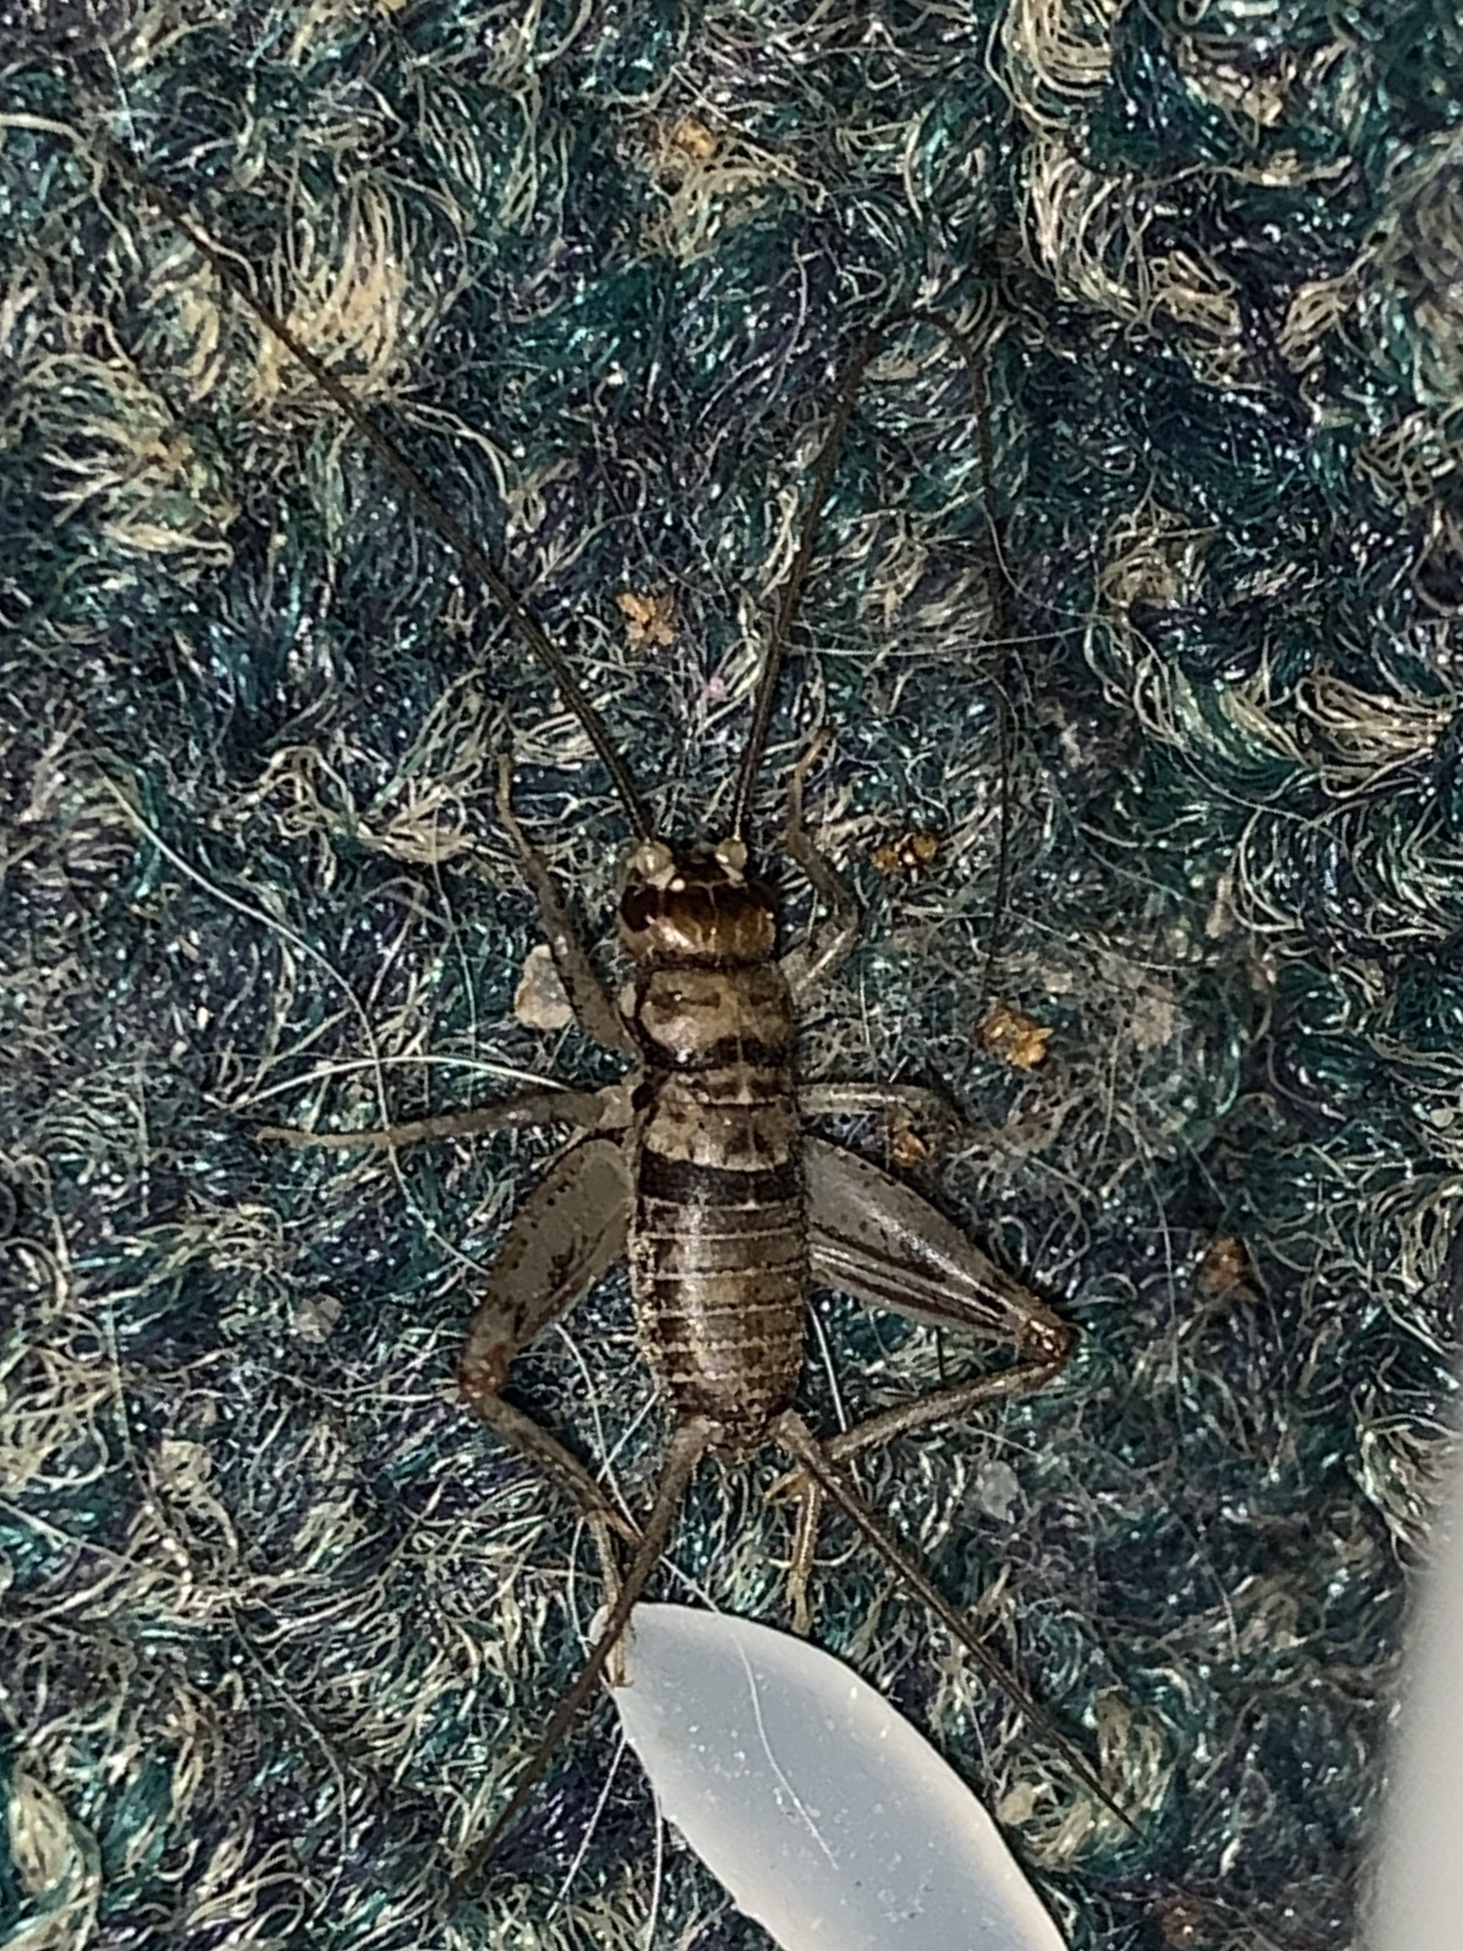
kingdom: Animalia
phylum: Arthropoda
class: Insecta
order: Orthoptera
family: Gryllidae
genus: Gryllodes
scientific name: Gryllodes sigillatus
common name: Tropical house cricket
